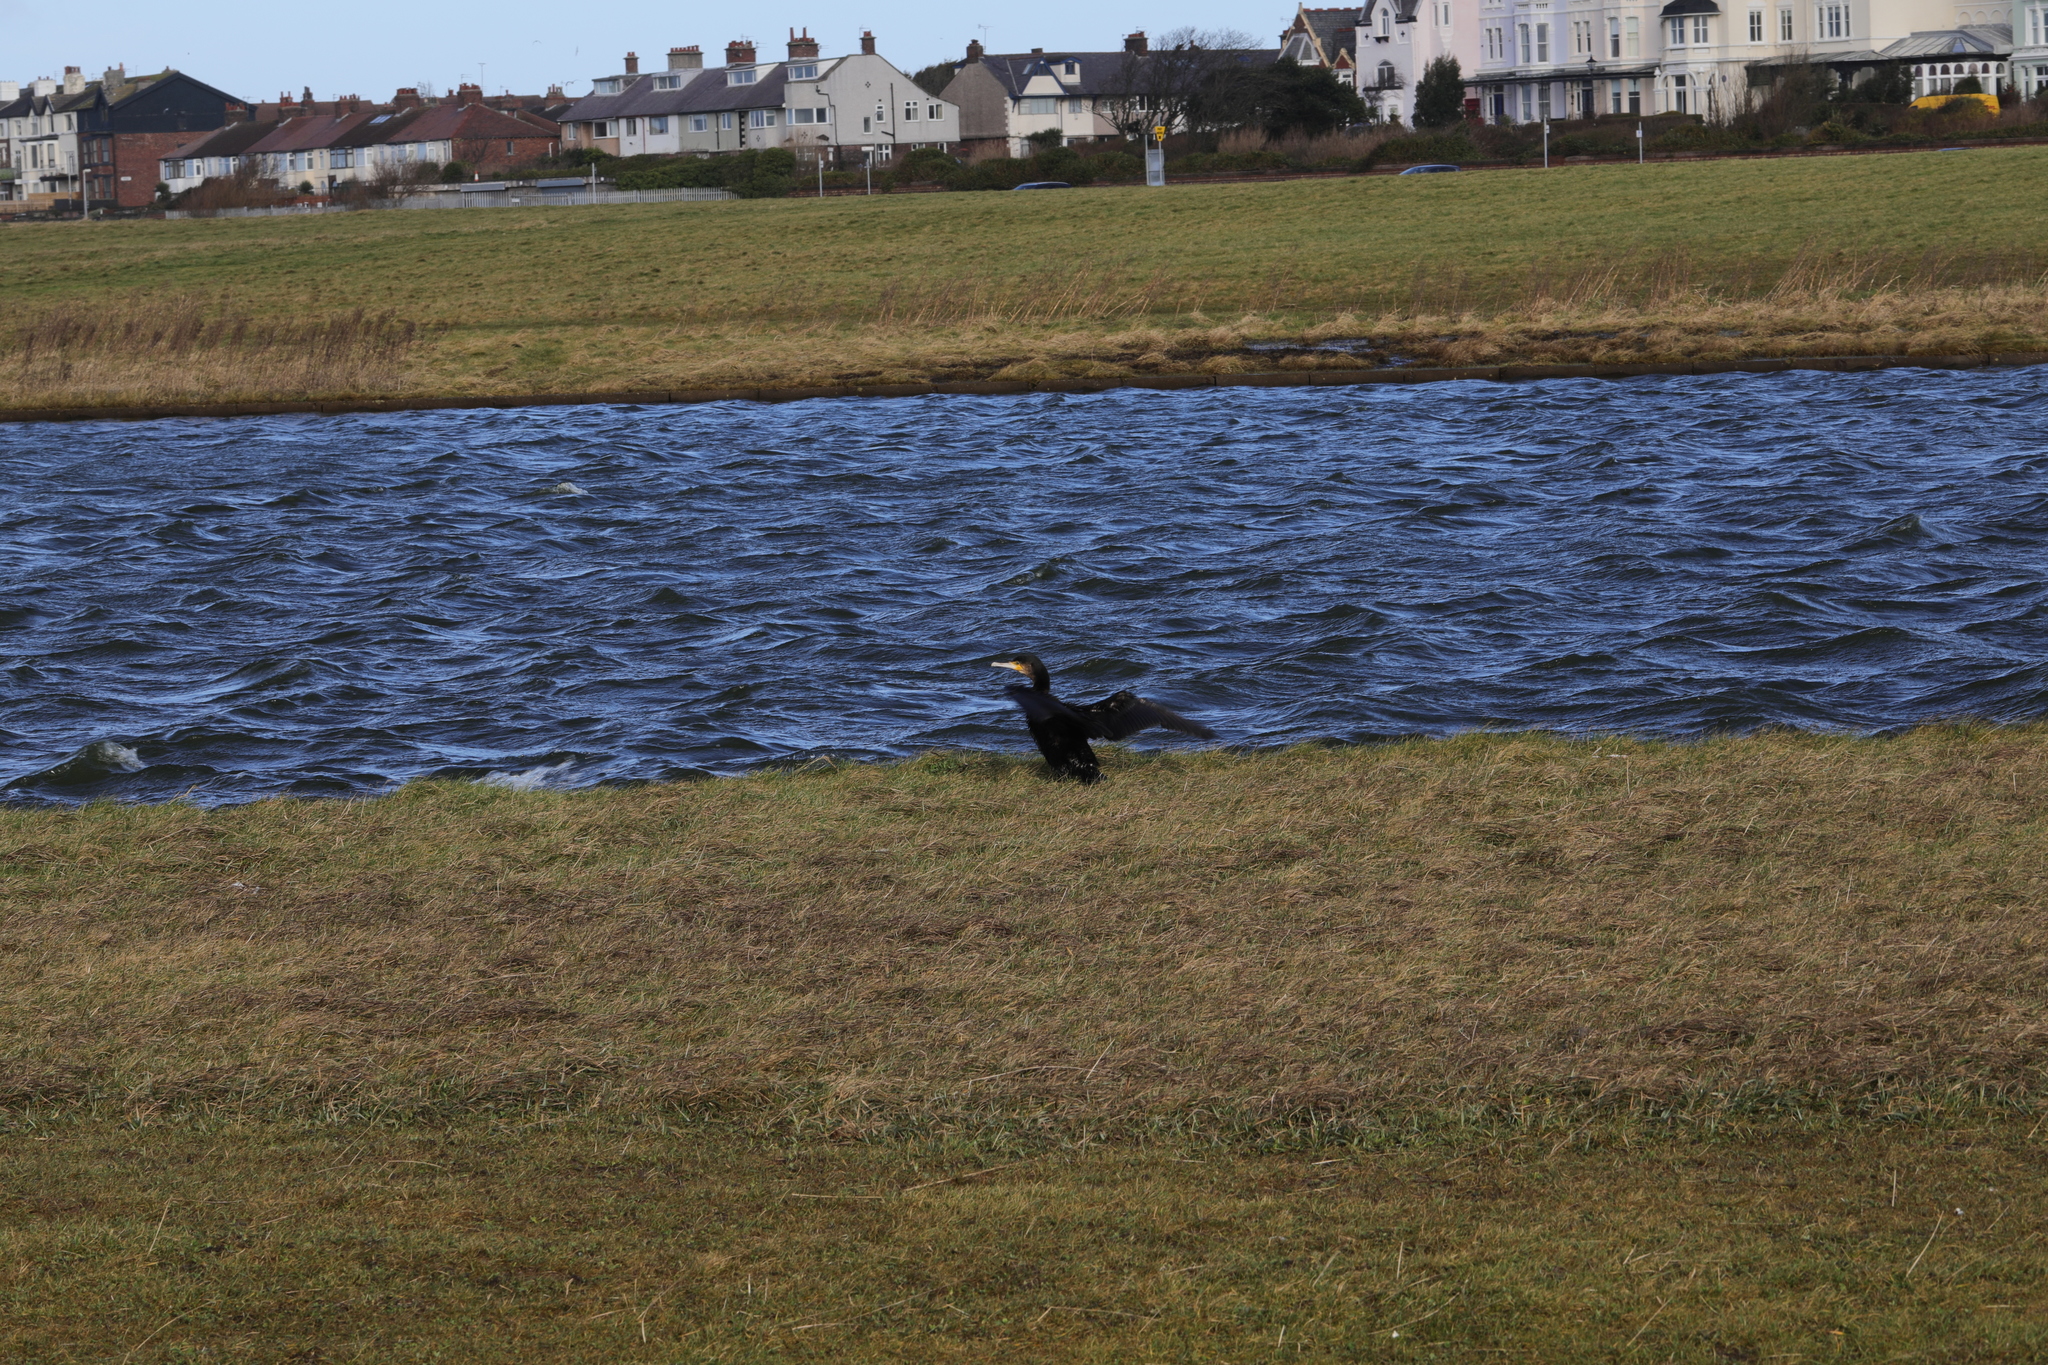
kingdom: Animalia
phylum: Chordata
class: Aves
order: Suliformes
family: Phalacrocoracidae
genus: Phalacrocorax
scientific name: Phalacrocorax carbo
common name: Great cormorant
